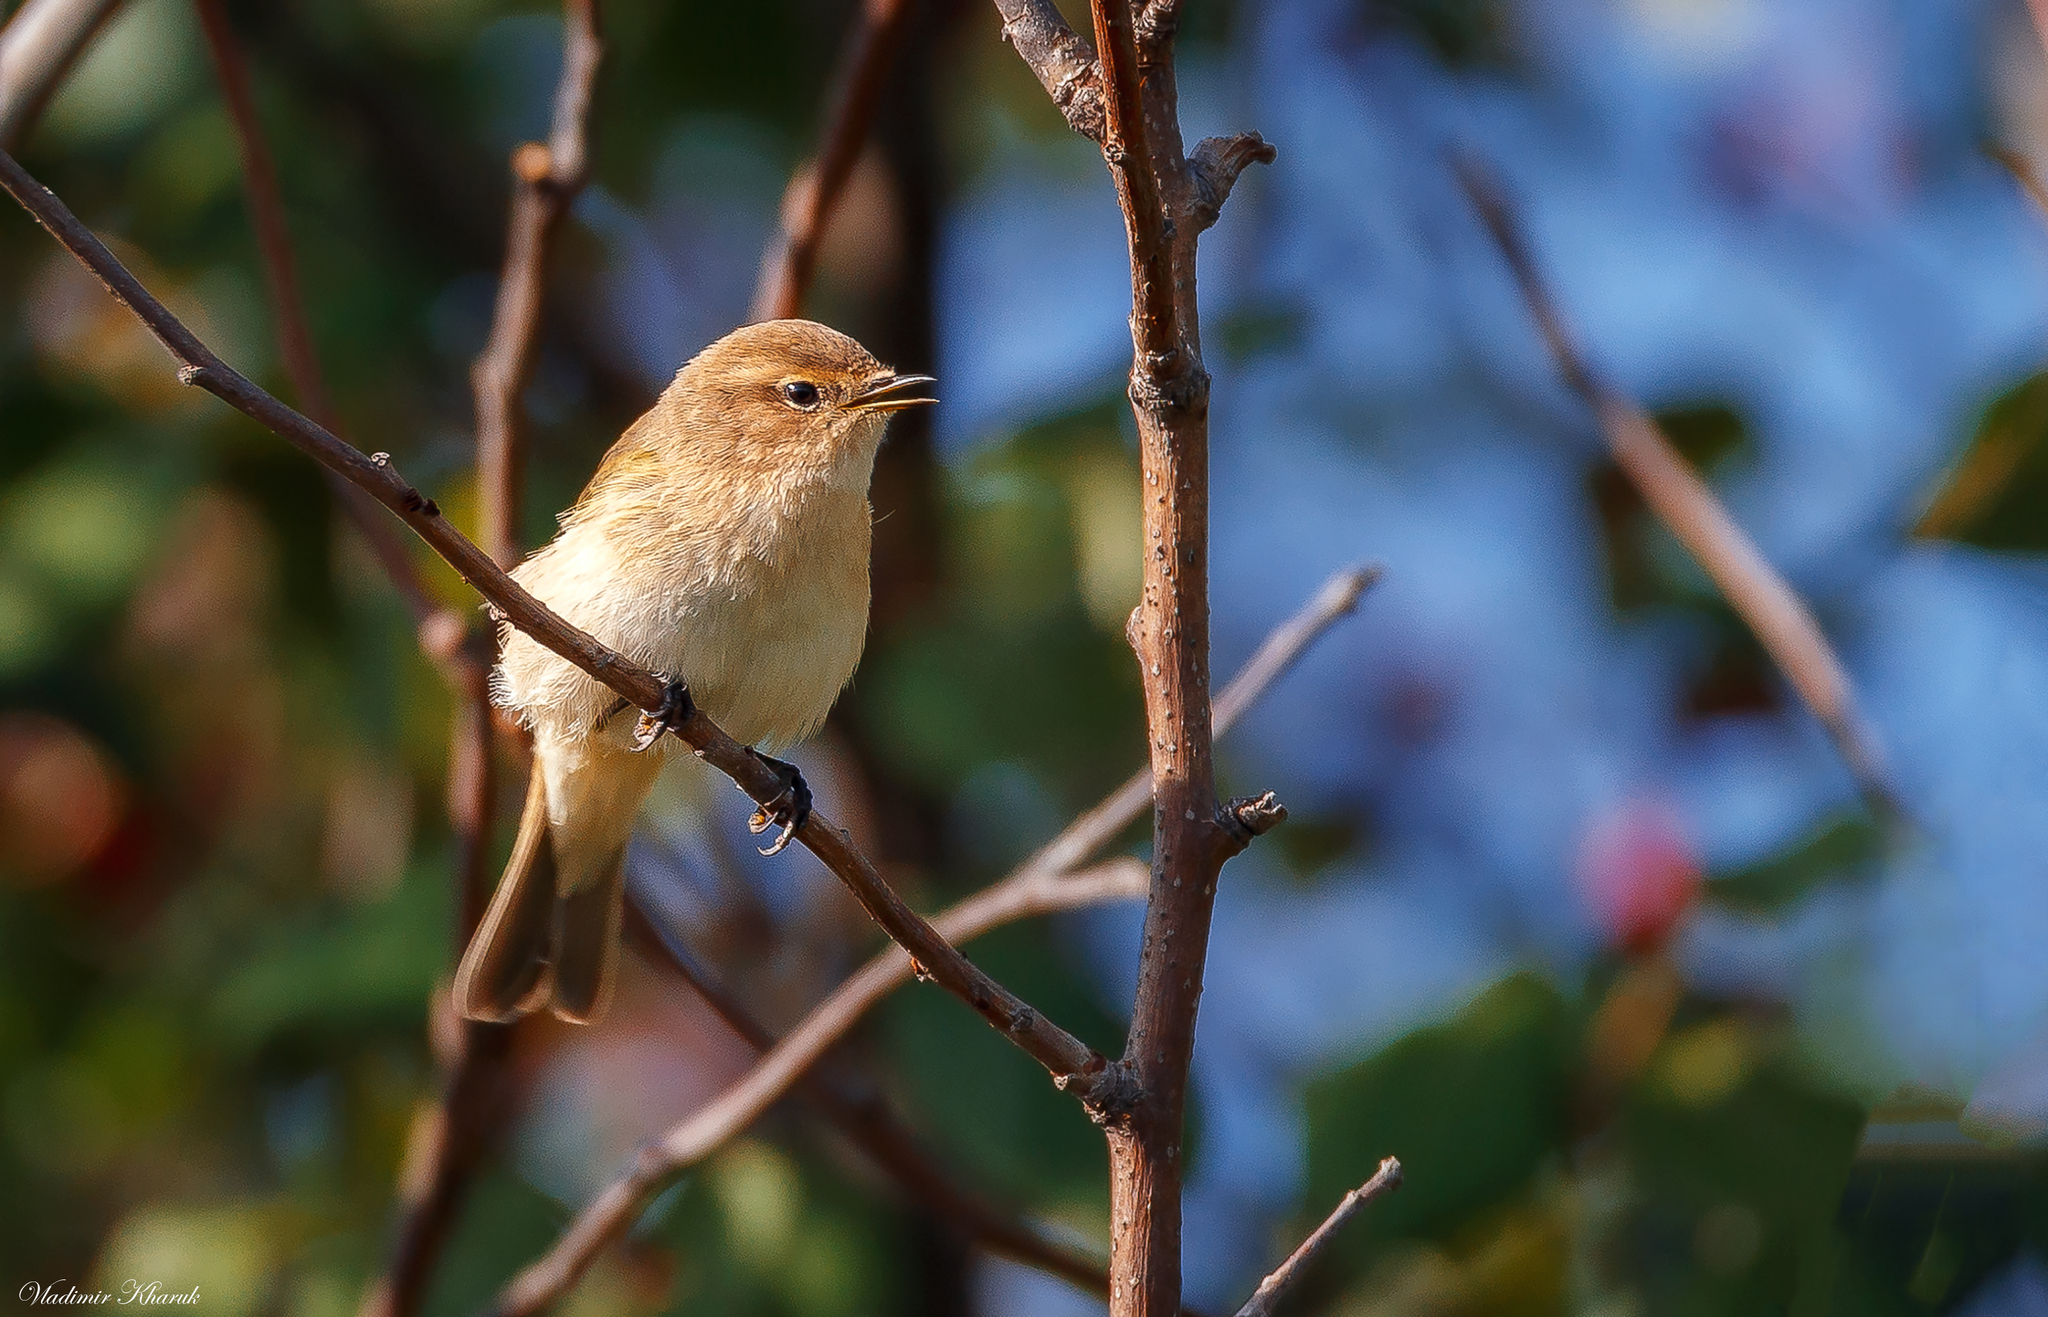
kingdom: Animalia
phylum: Chordata
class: Aves
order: Passeriformes
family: Phylloscopidae
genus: Phylloscopus
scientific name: Phylloscopus collybita
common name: Common chiffchaff
